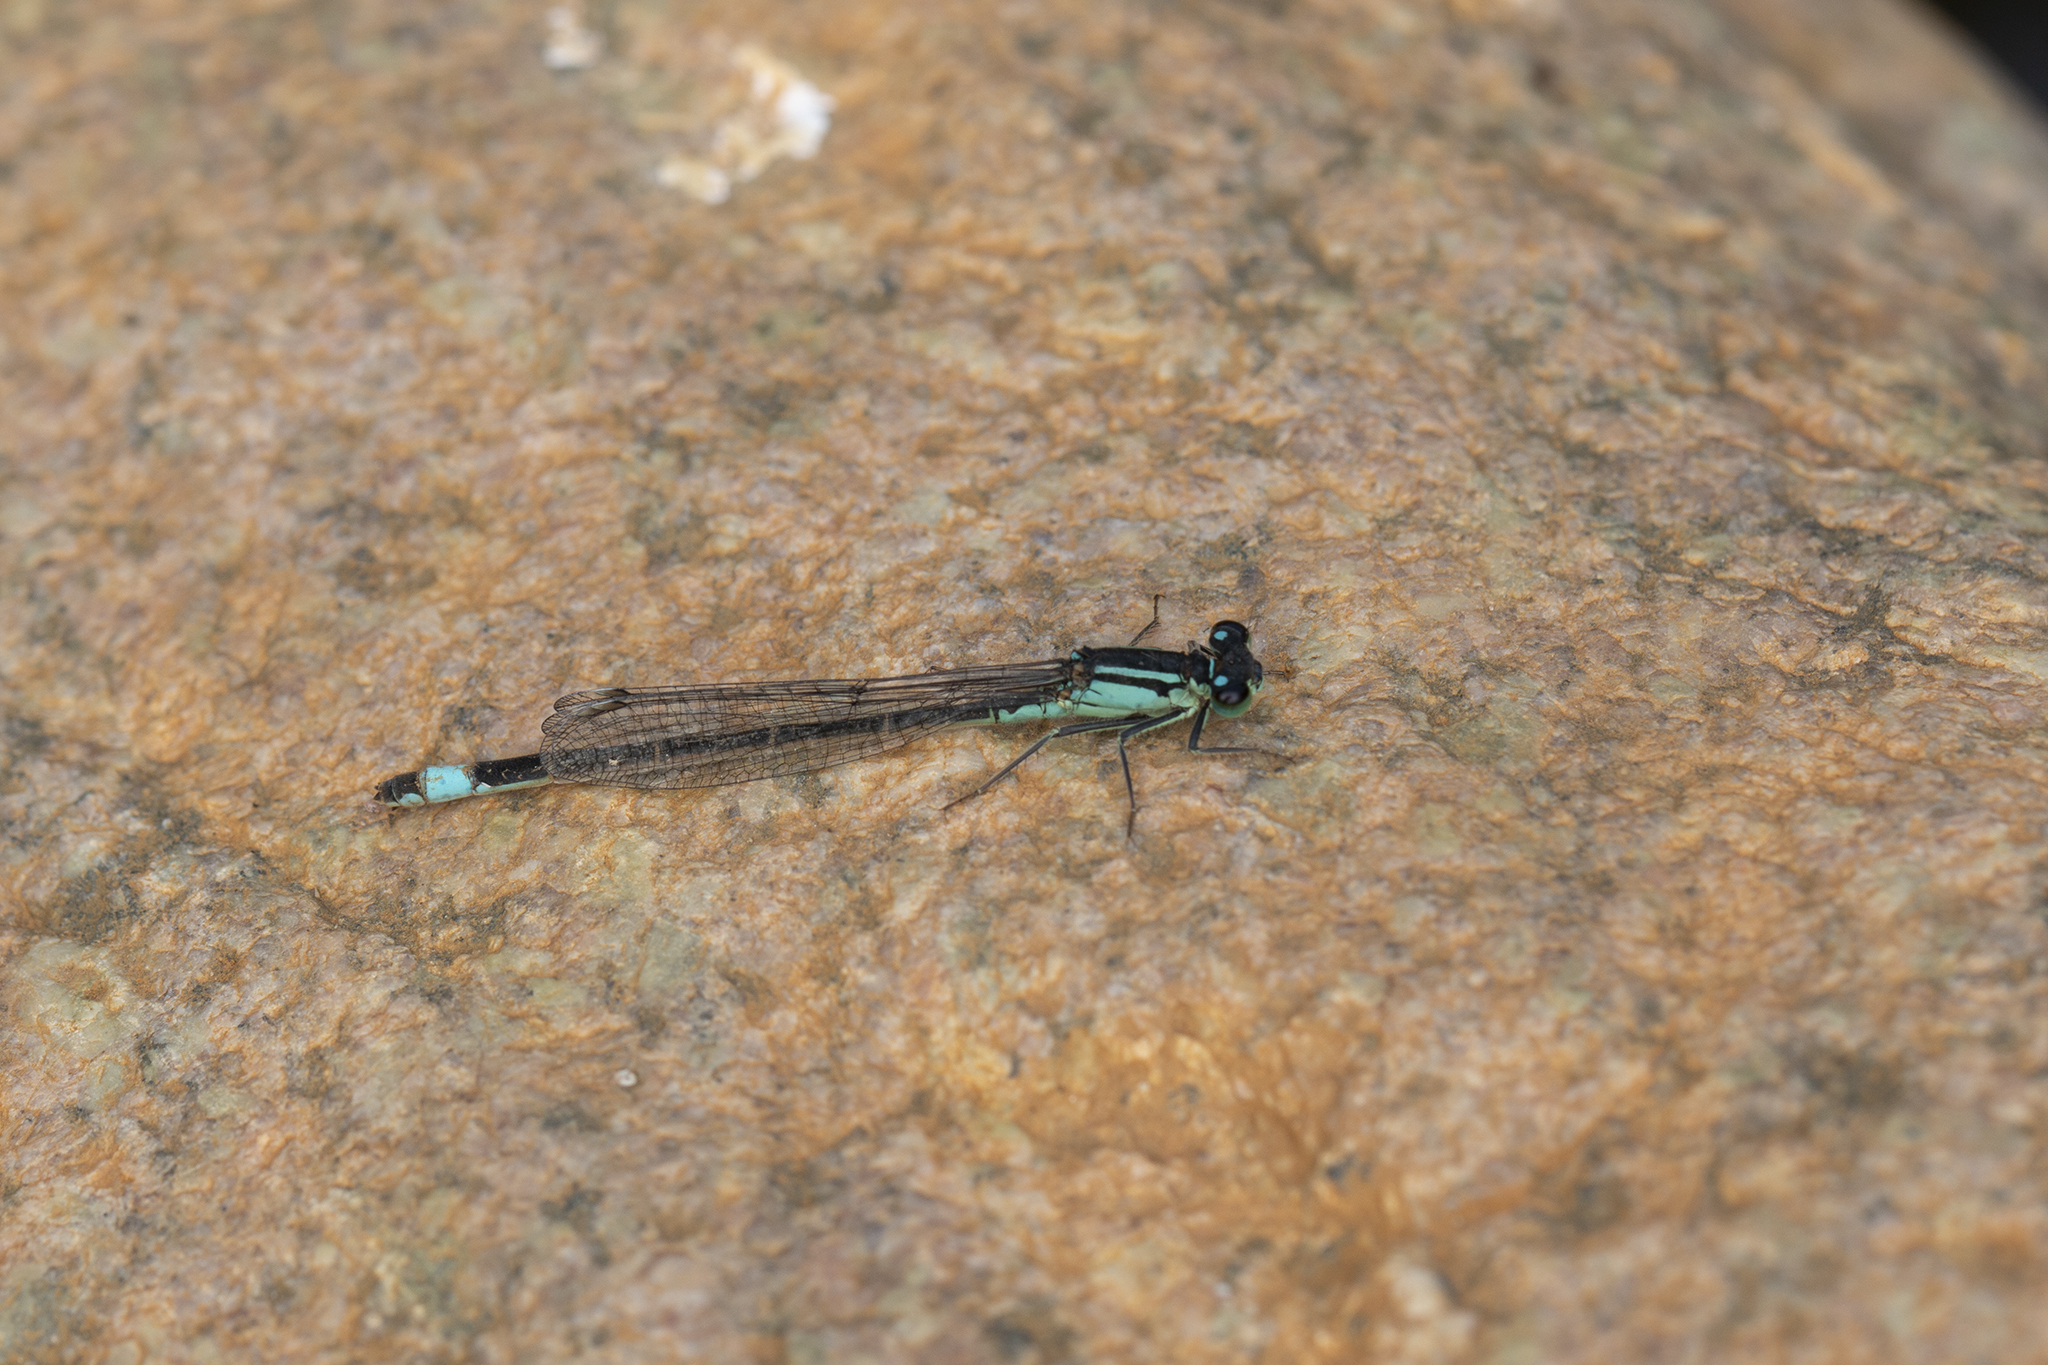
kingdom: Animalia
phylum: Arthropoda
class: Insecta
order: Odonata
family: Coenagrionidae
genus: Ischnura
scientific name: Ischnura elegans
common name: Blue-tailed damselfly
